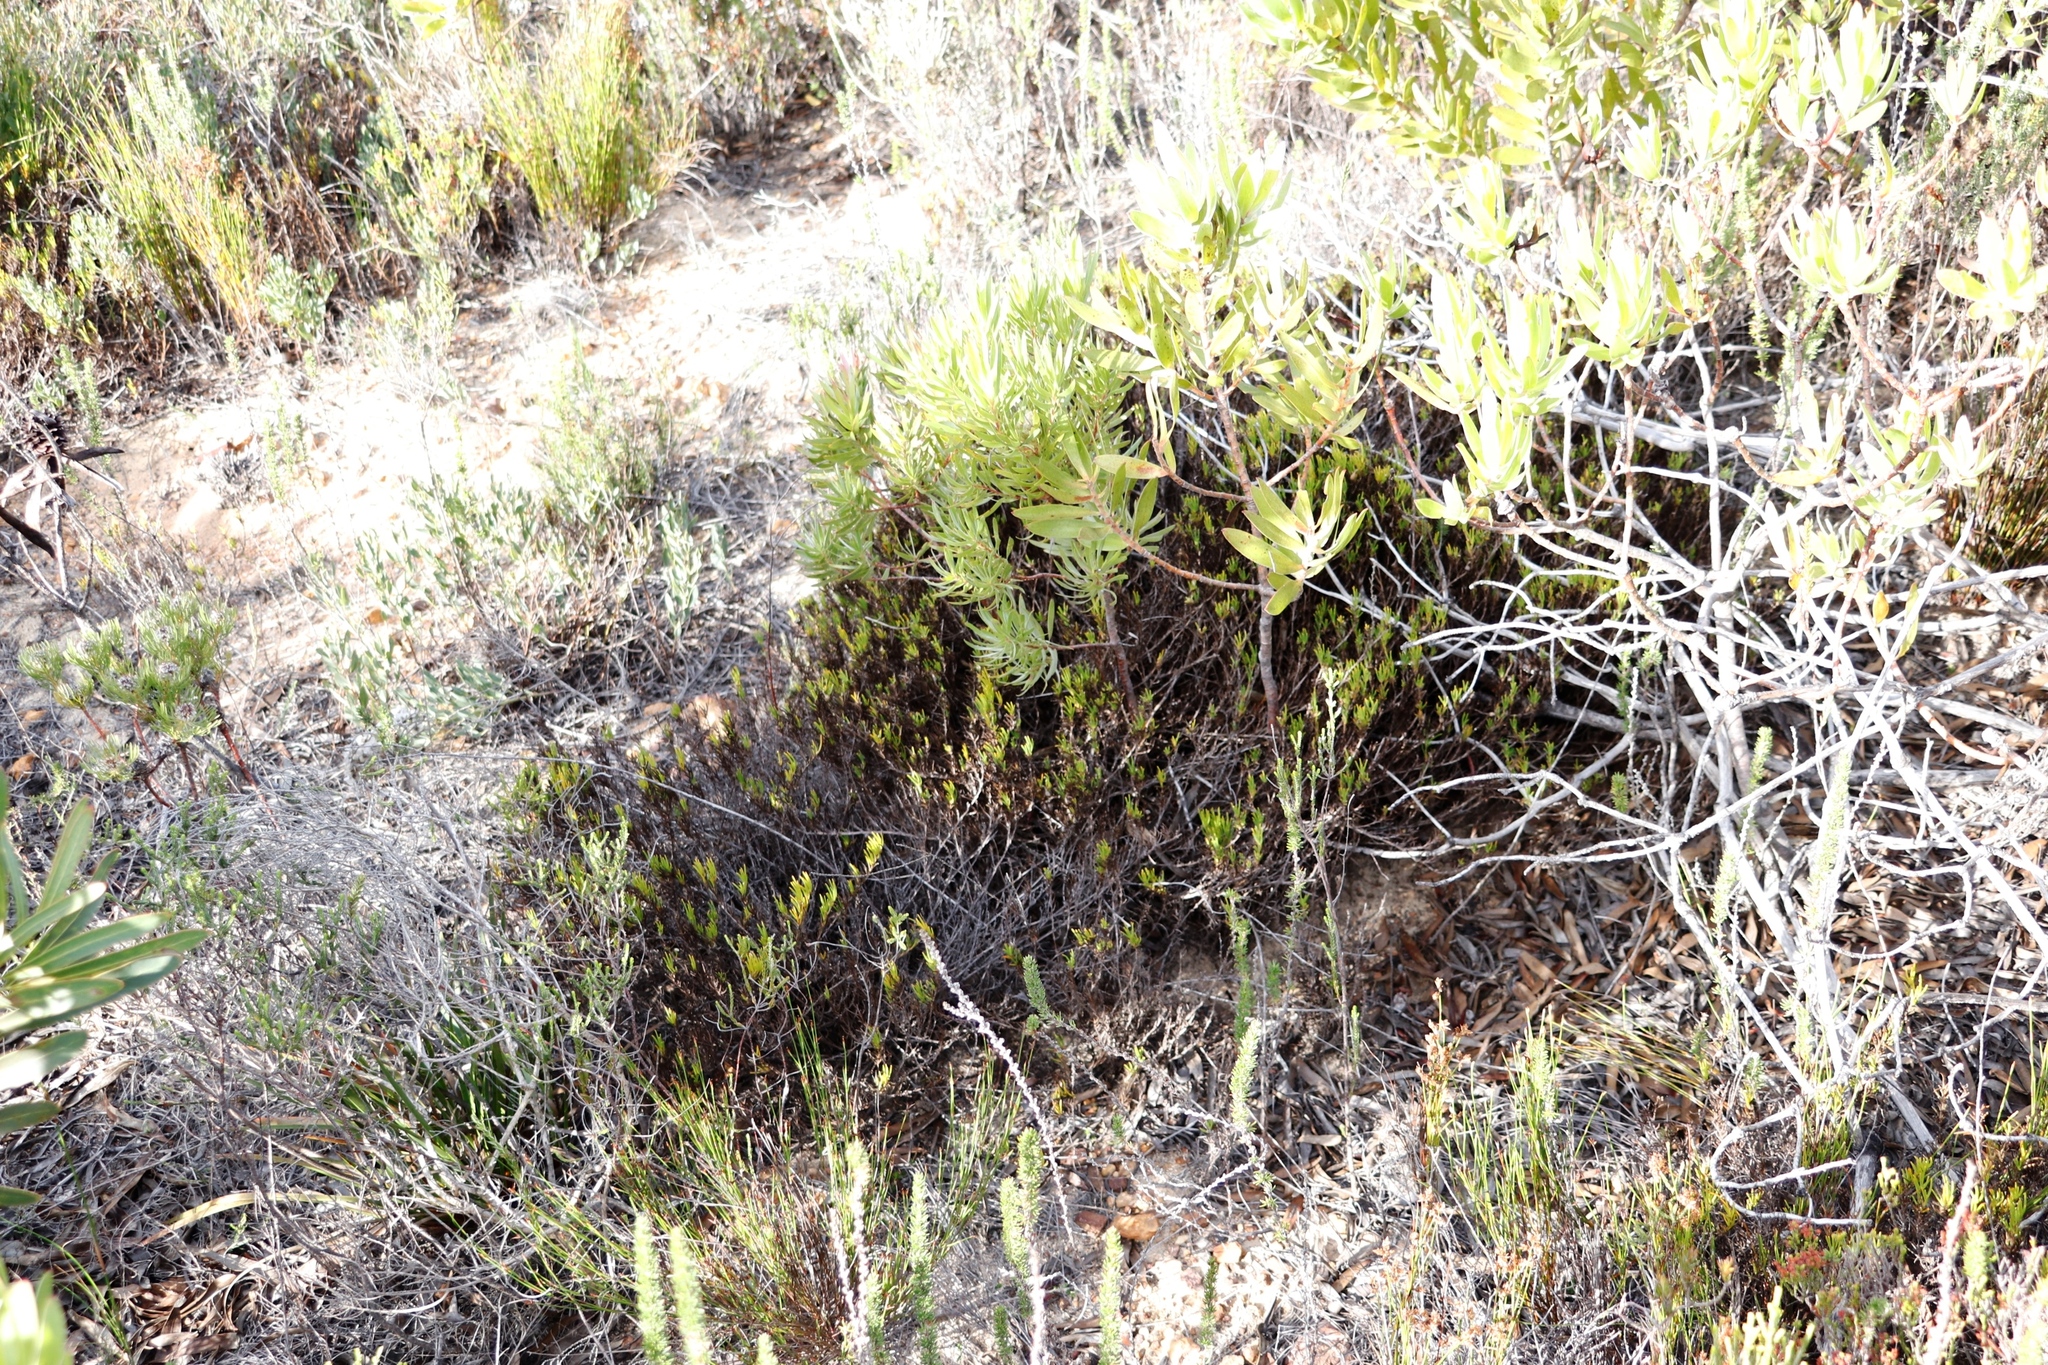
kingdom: Plantae
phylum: Tracheophyta
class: Magnoliopsida
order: Proteales
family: Proteaceae
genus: Leucadendron
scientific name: Leucadendron xanthoconus
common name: Sickle-leaf conebush
